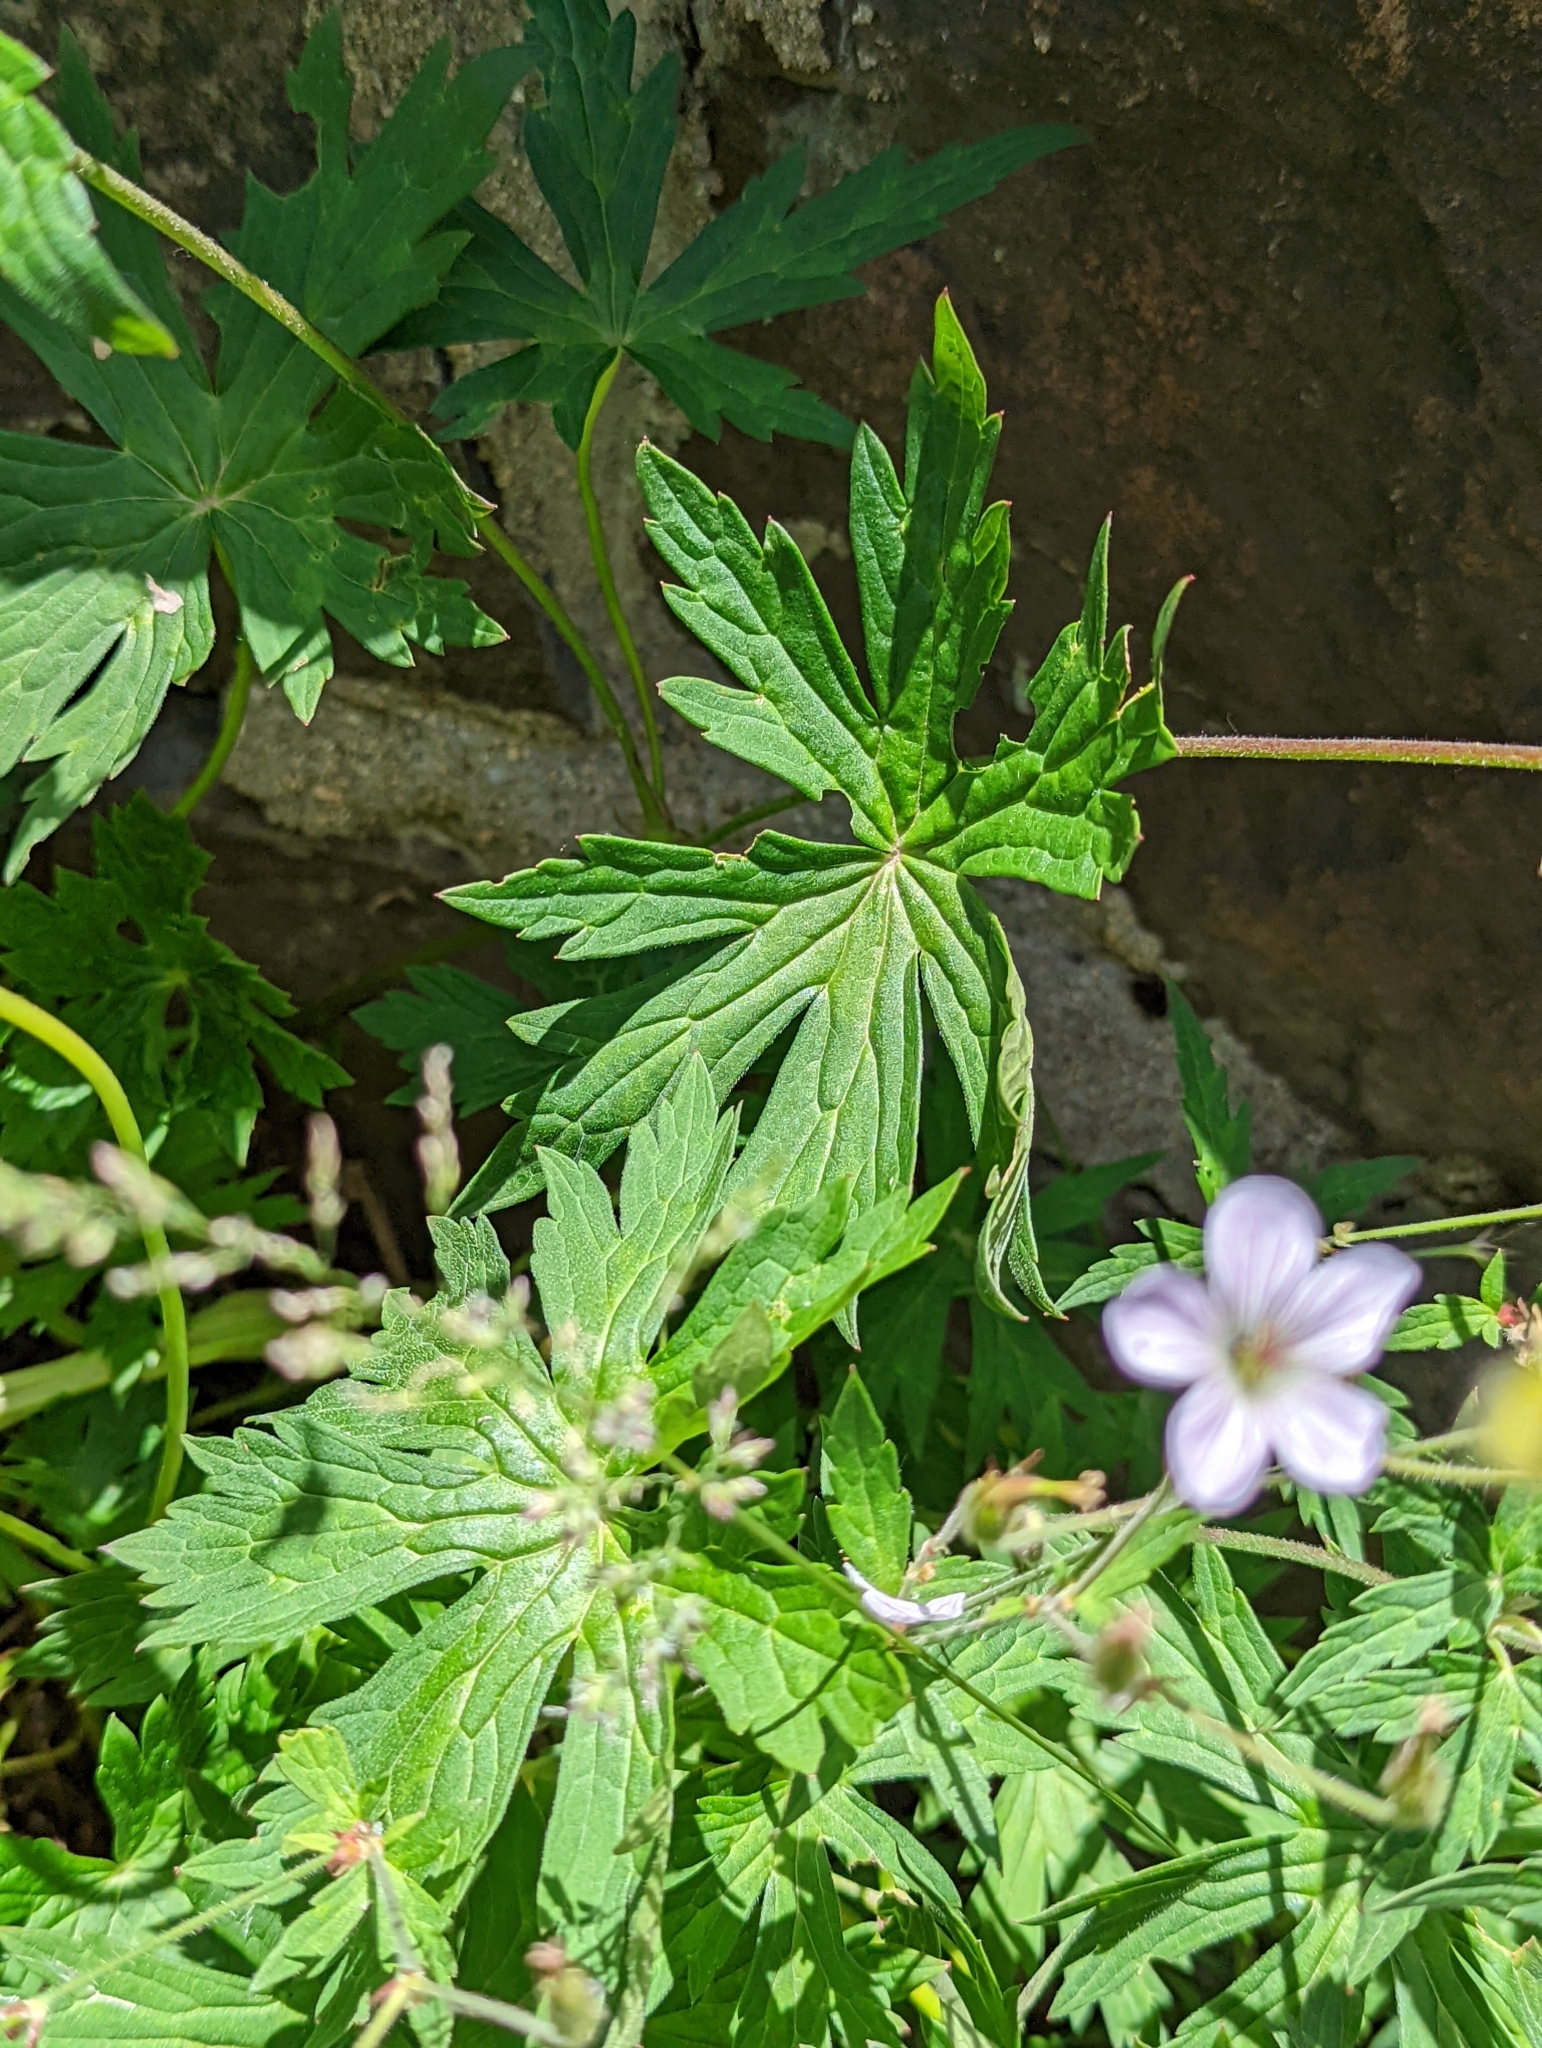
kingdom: Plantae
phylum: Tracheophyta
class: Magnoliopsida
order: Geraniales
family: Geraniaceae
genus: Geranium
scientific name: Geranium richardsonii
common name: Richardson's crane's-bill
